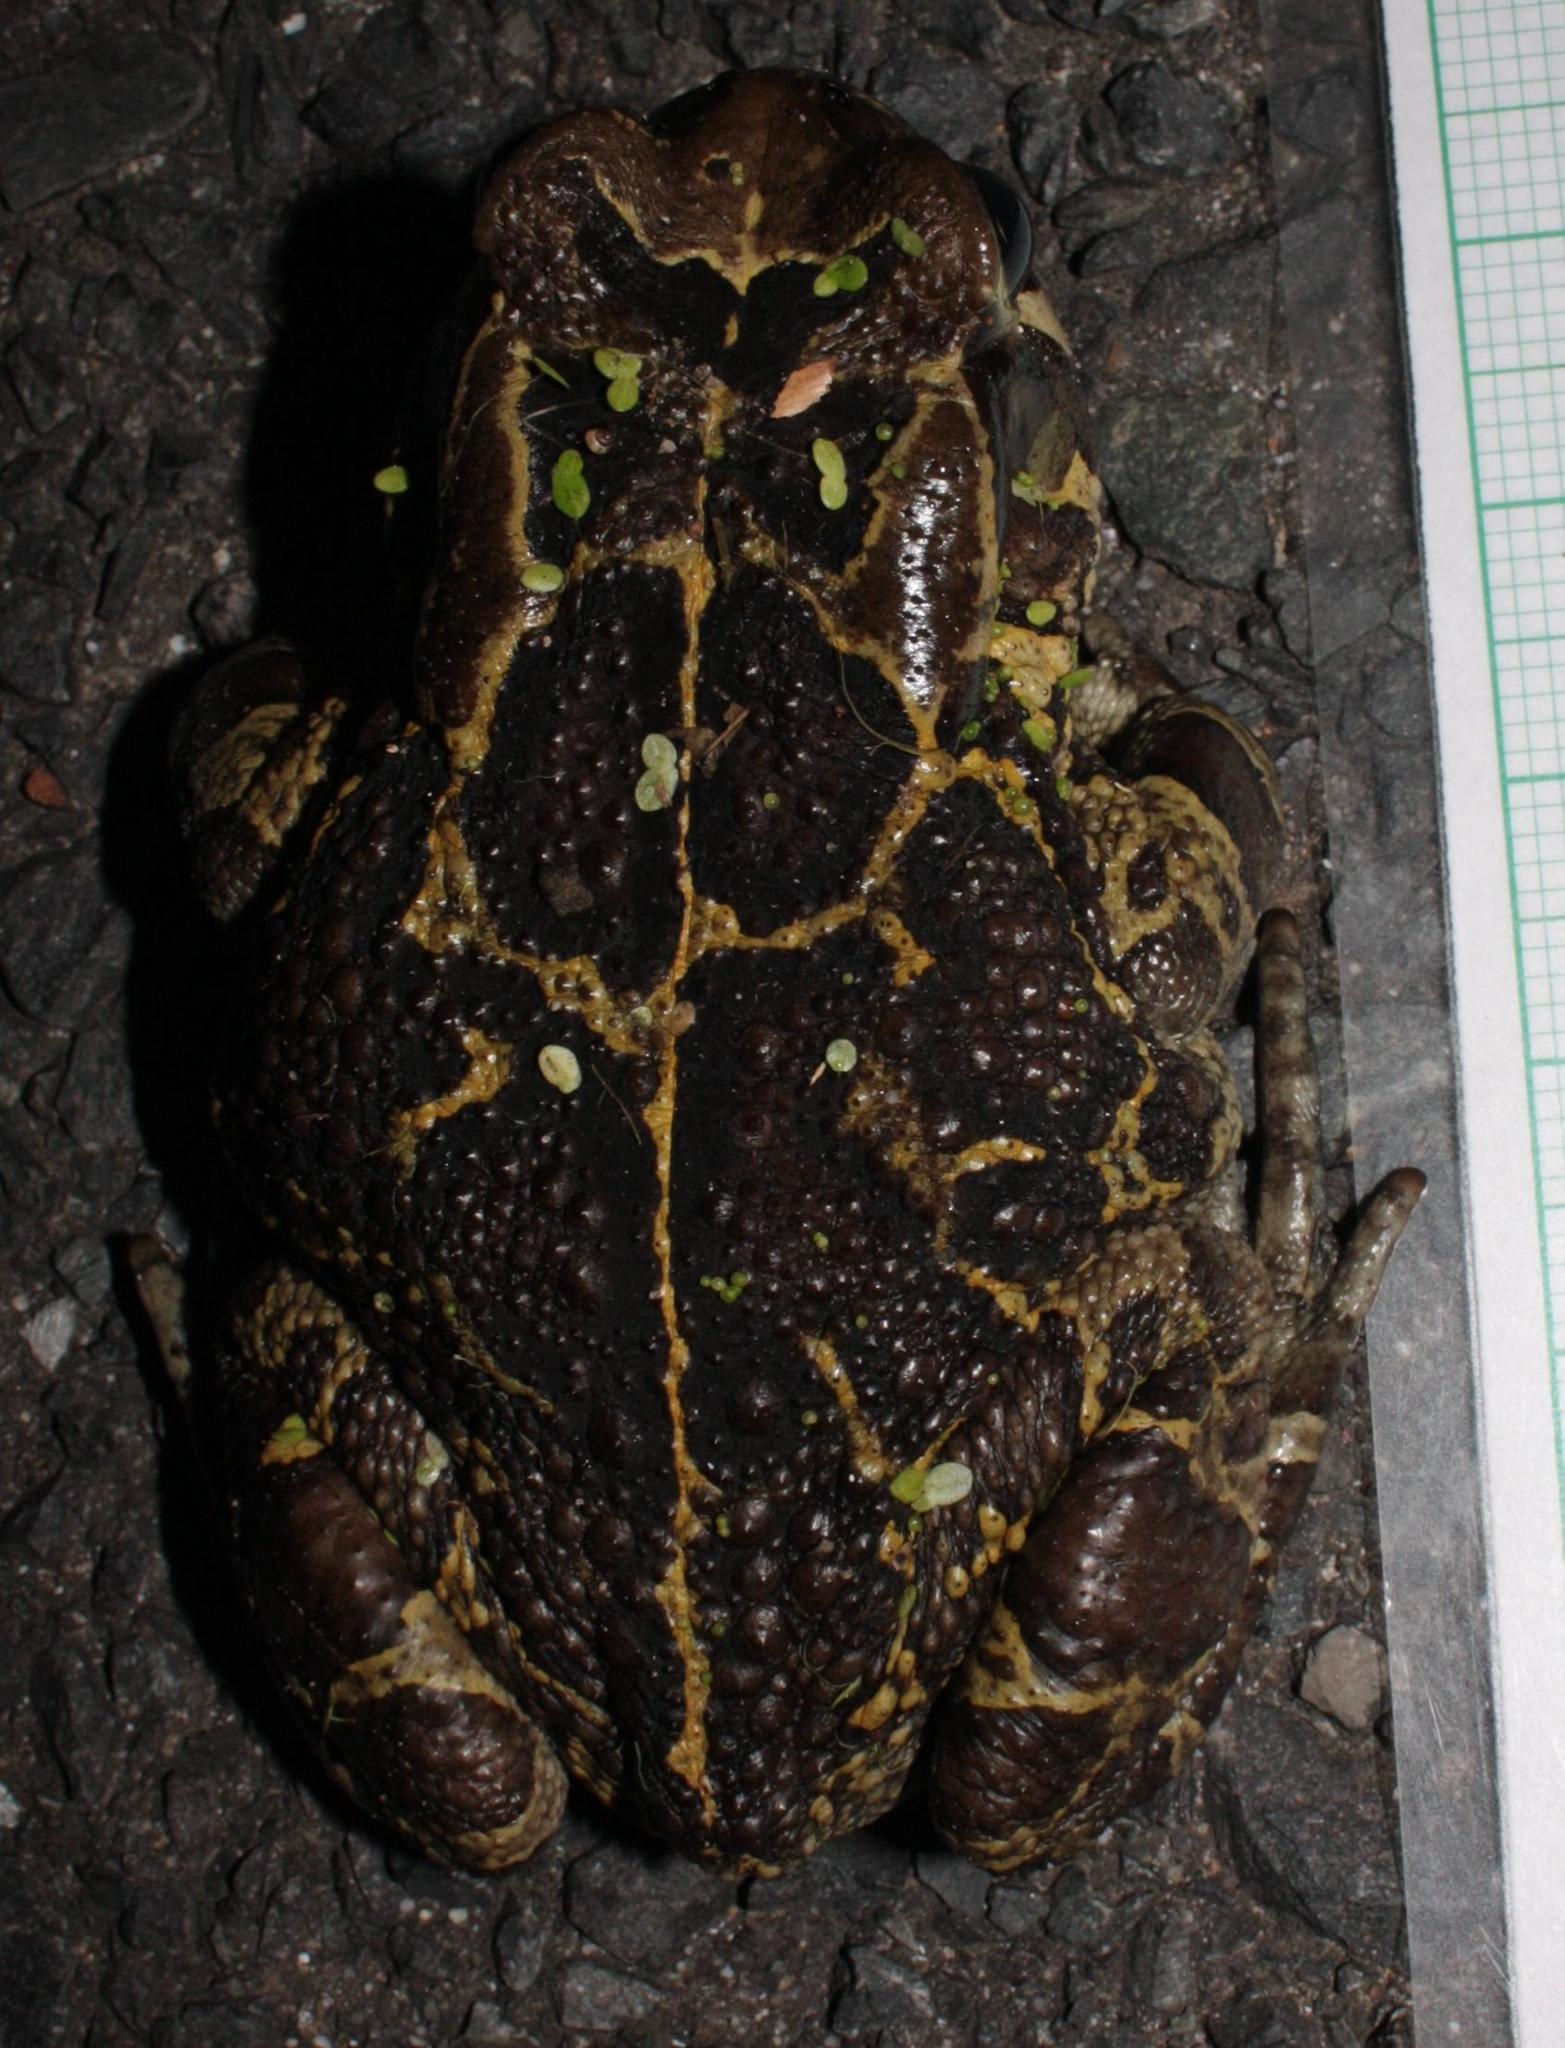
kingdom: Animalia
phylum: Chordata
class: Amphibia
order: Anura
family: Bufonidae
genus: Sclerophrys
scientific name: Sclerophrys pantherina
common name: Panther toad
